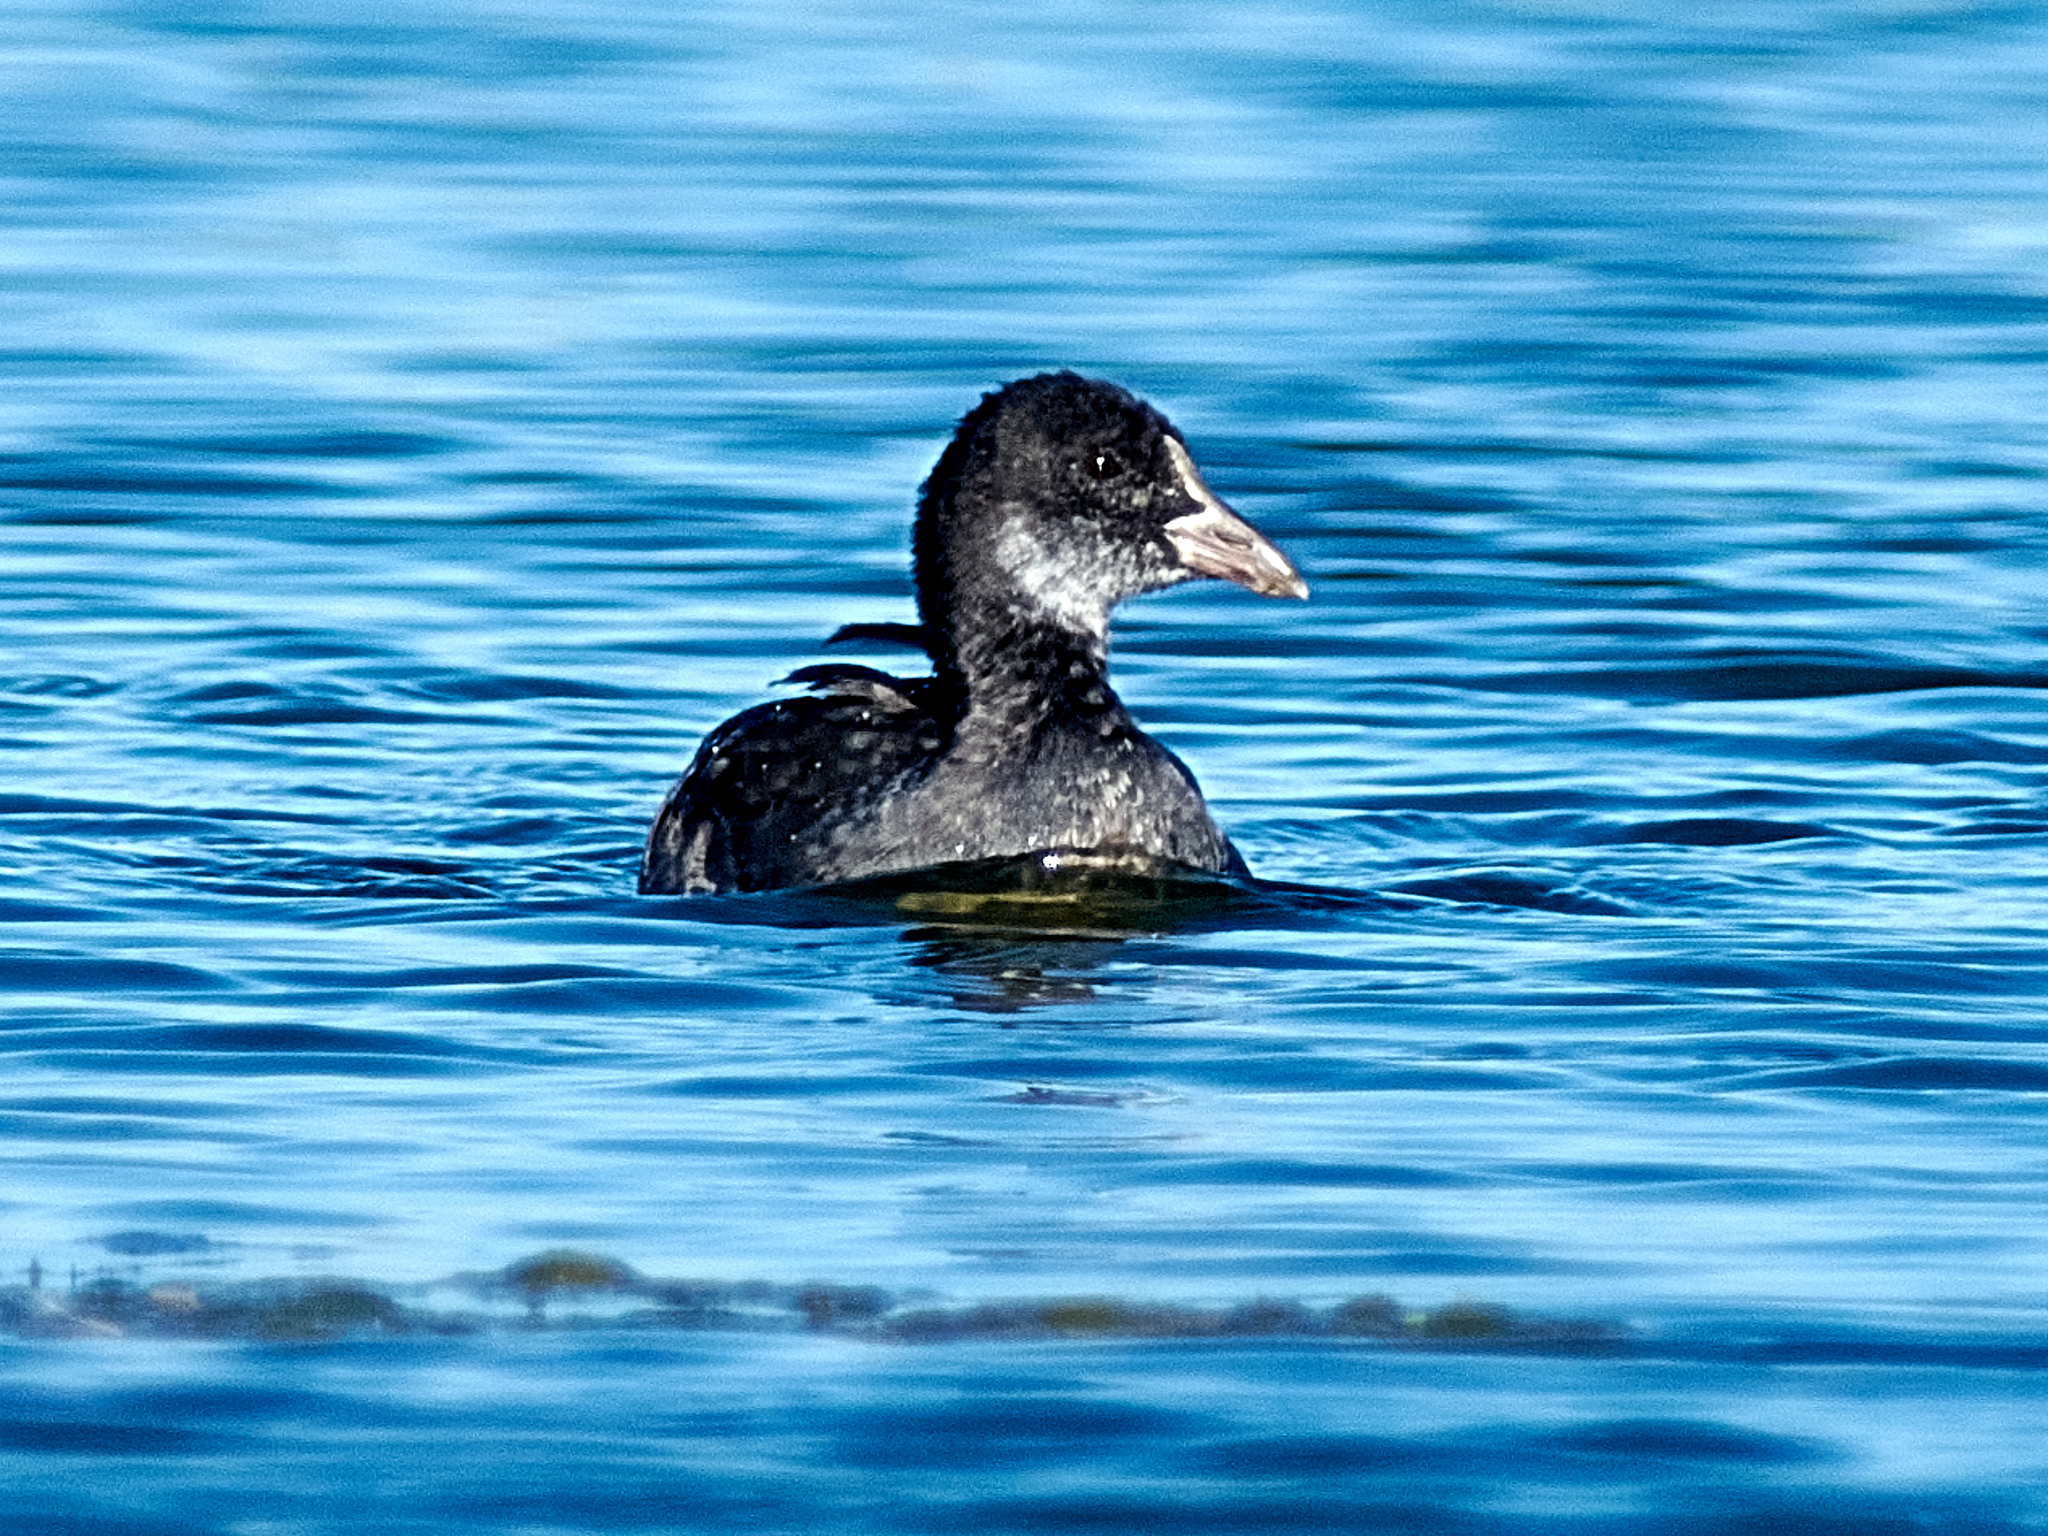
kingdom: Animalia
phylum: Chordata
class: Aves
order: Gruiformes
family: Rallidae
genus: Fulica
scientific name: Fulica atra
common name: Eurasian coot
